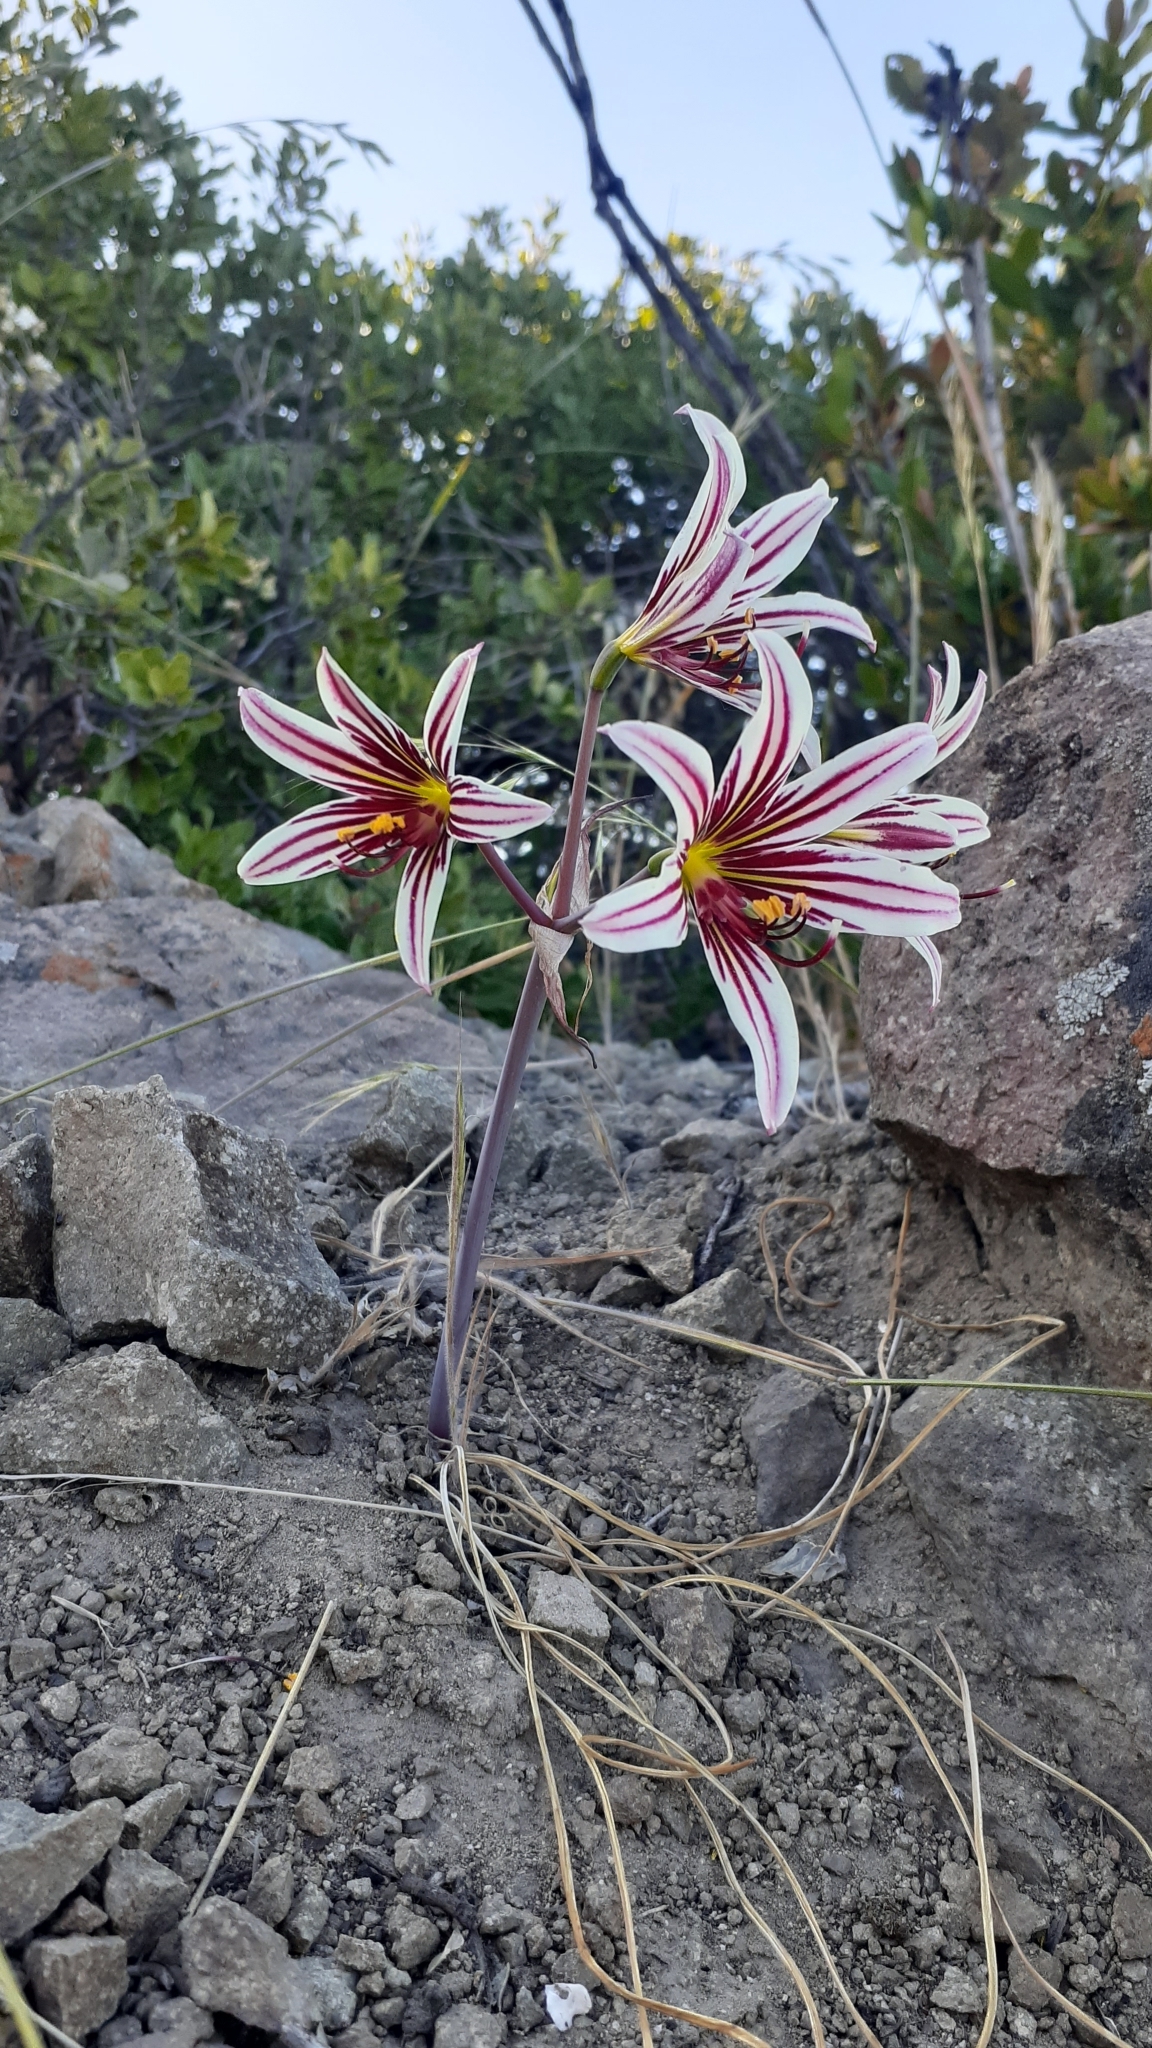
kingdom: Plantae
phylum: Tracheophyta
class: Liliopsida
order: Asparagales
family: Amaryllidaceae
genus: Phycella
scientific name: Phycella arzae
